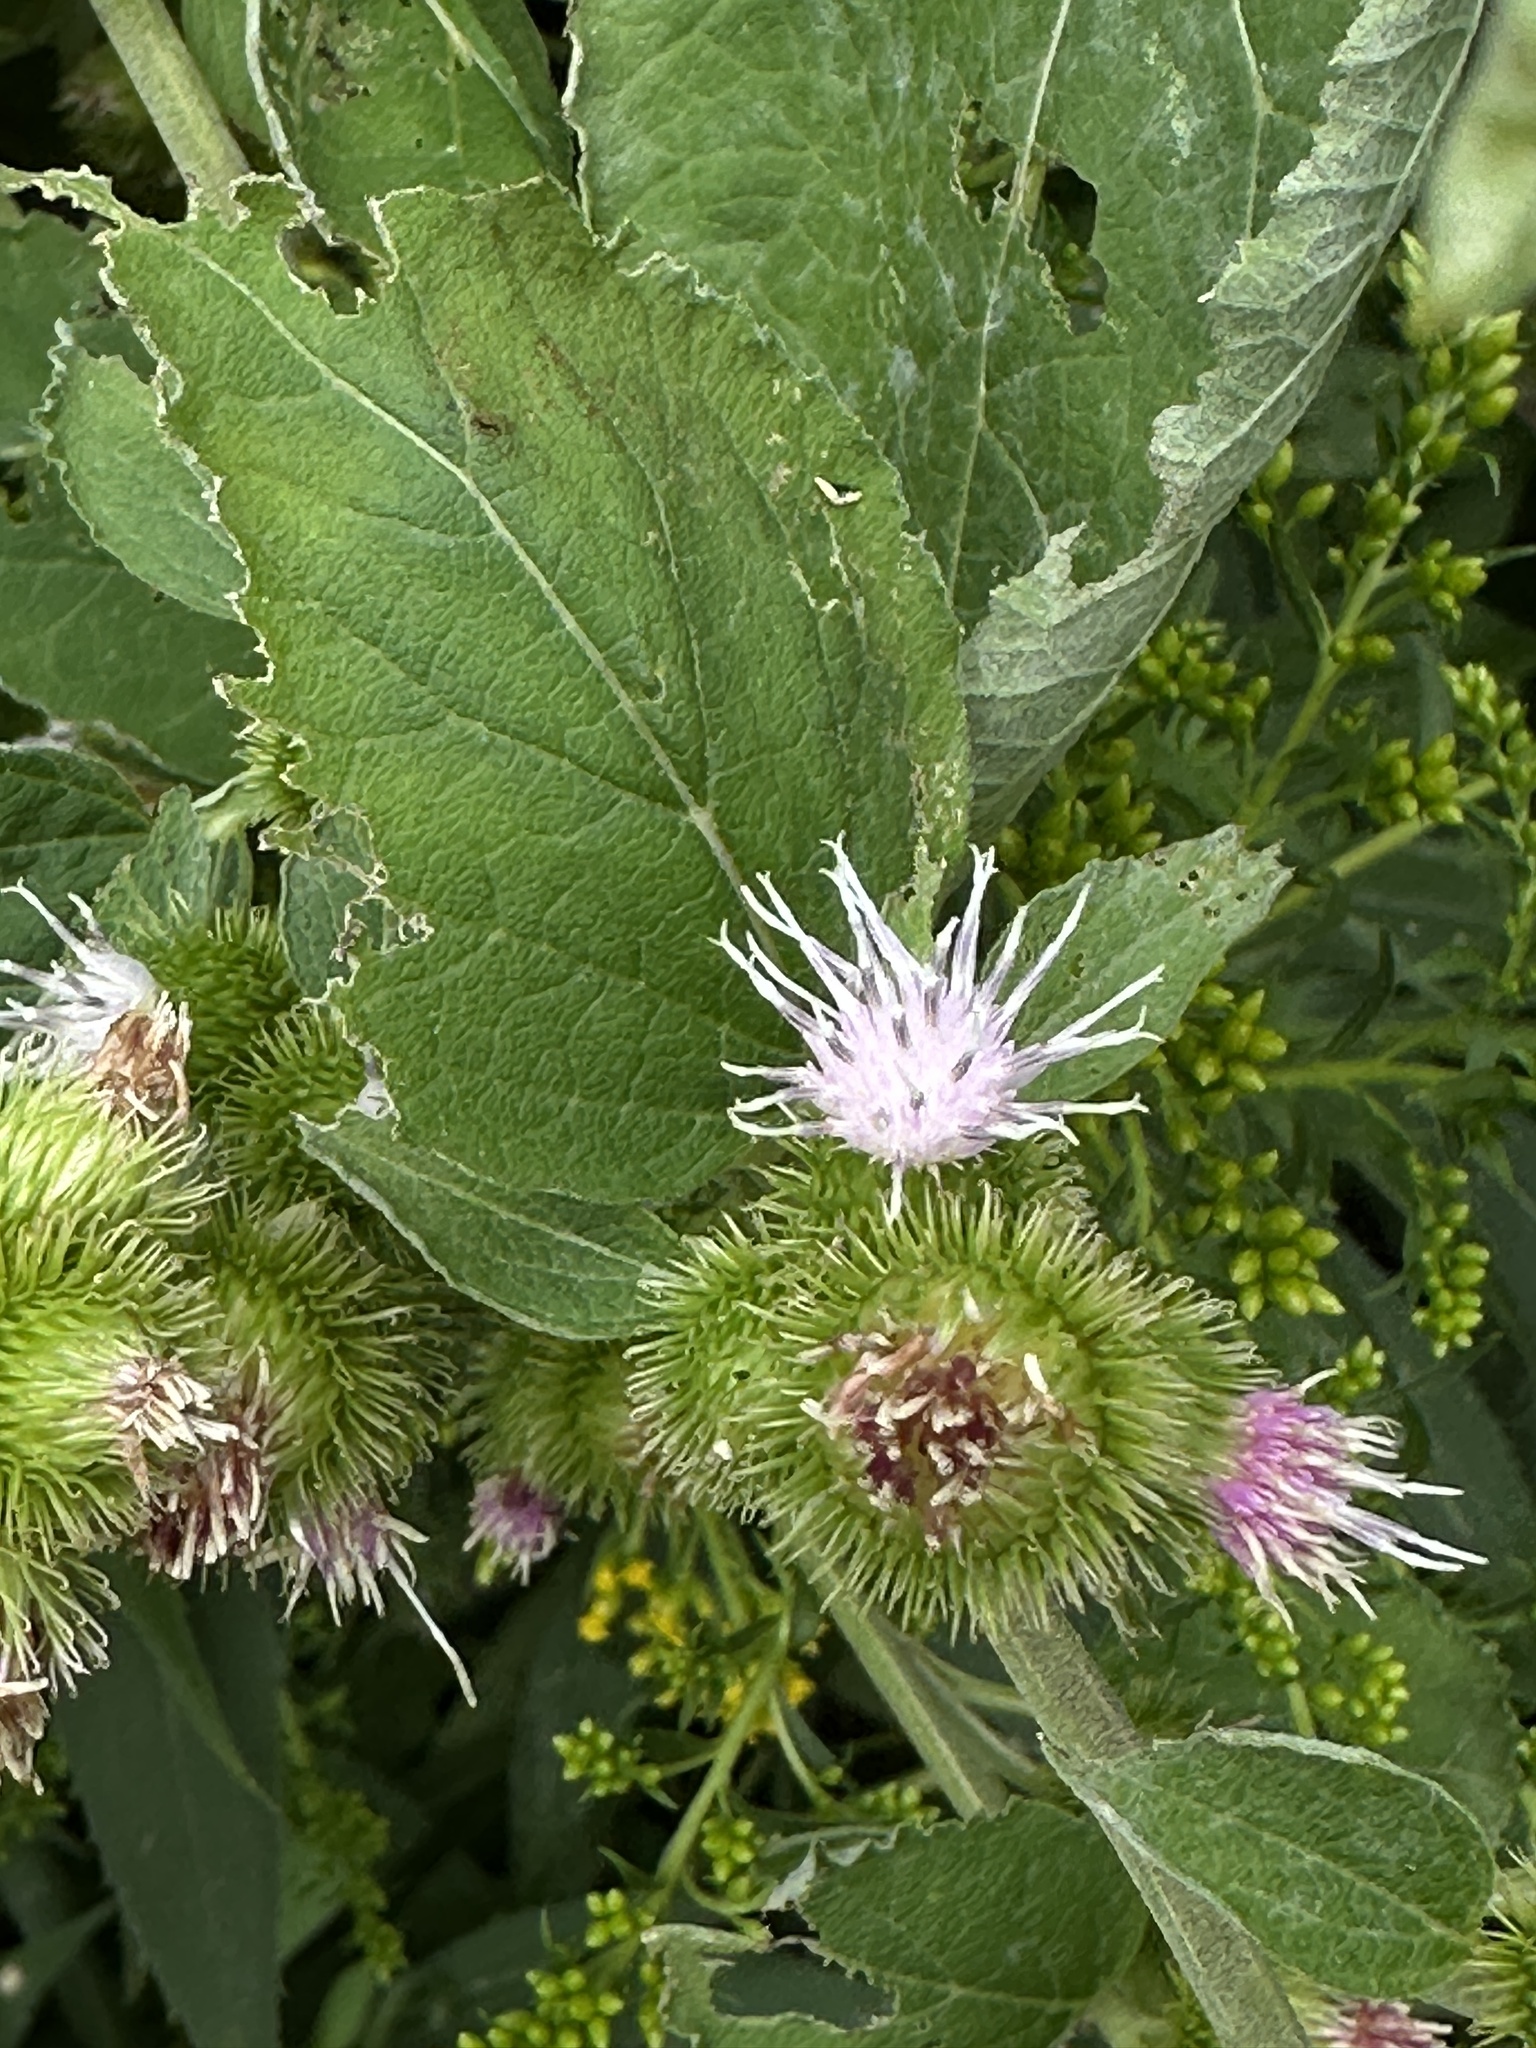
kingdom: Plantae
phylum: Tracheophyta
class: Magnoliopsida
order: Asterales
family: Asteraceae
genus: Arctium
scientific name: Arctium minus
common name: Lesser burdock
